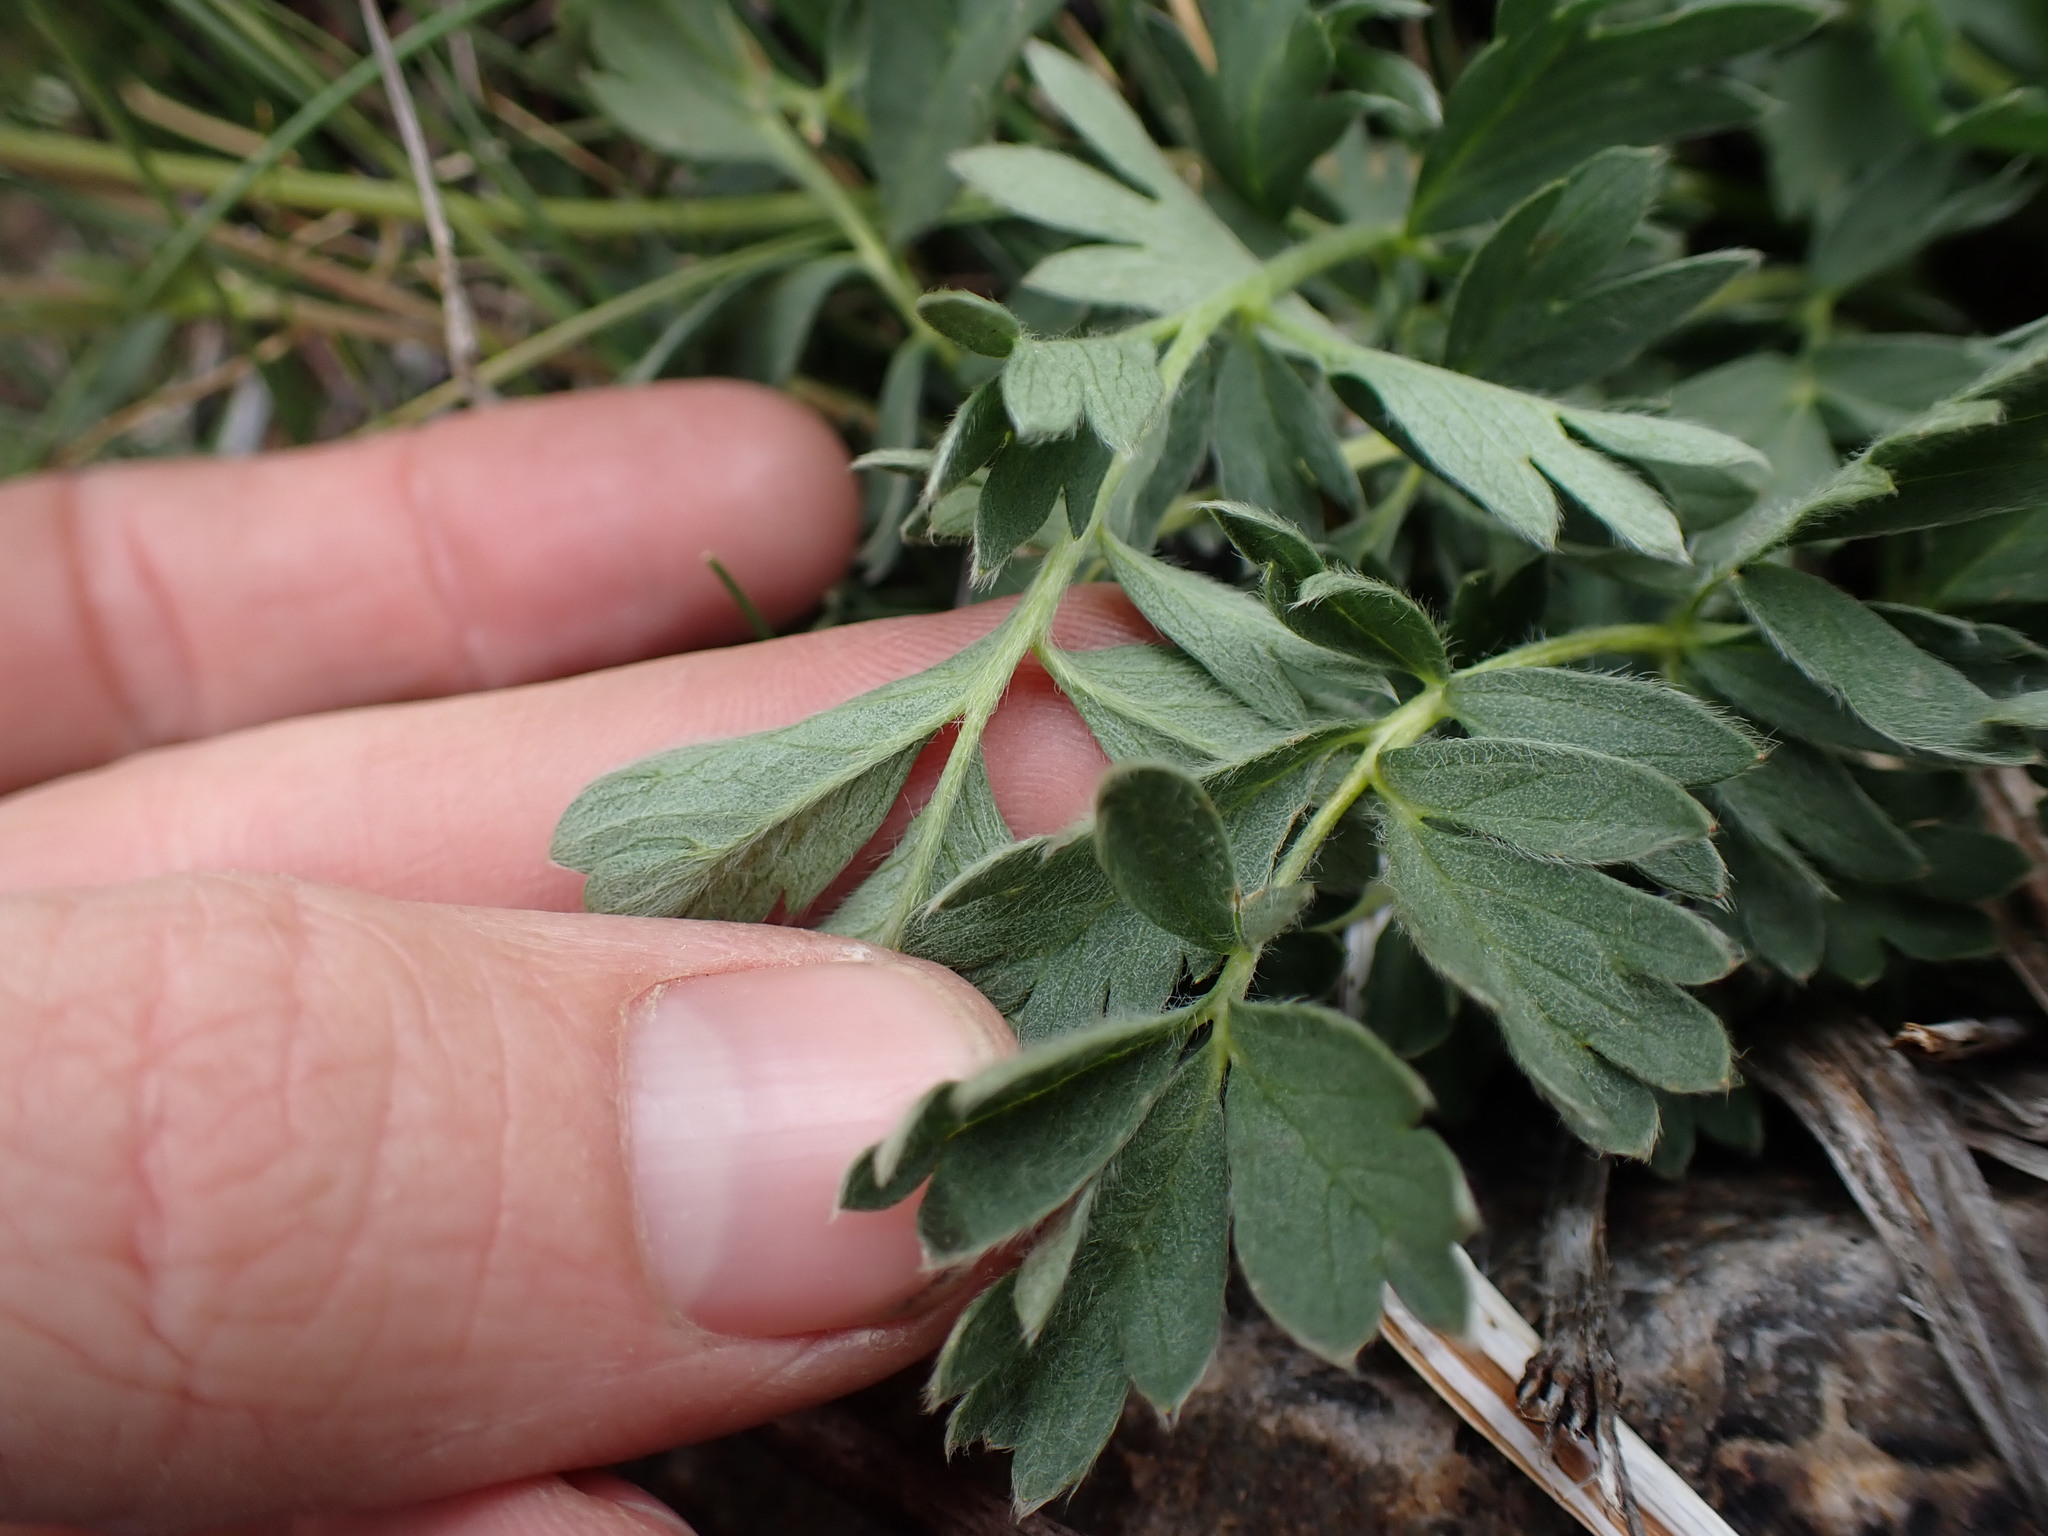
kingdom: Plantae
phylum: Tracheophyta
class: Magnoliopsida
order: Rosales
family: Rosaceae
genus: Potentilla
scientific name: Potentilla drummondii
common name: Drummond's cinquefoil
